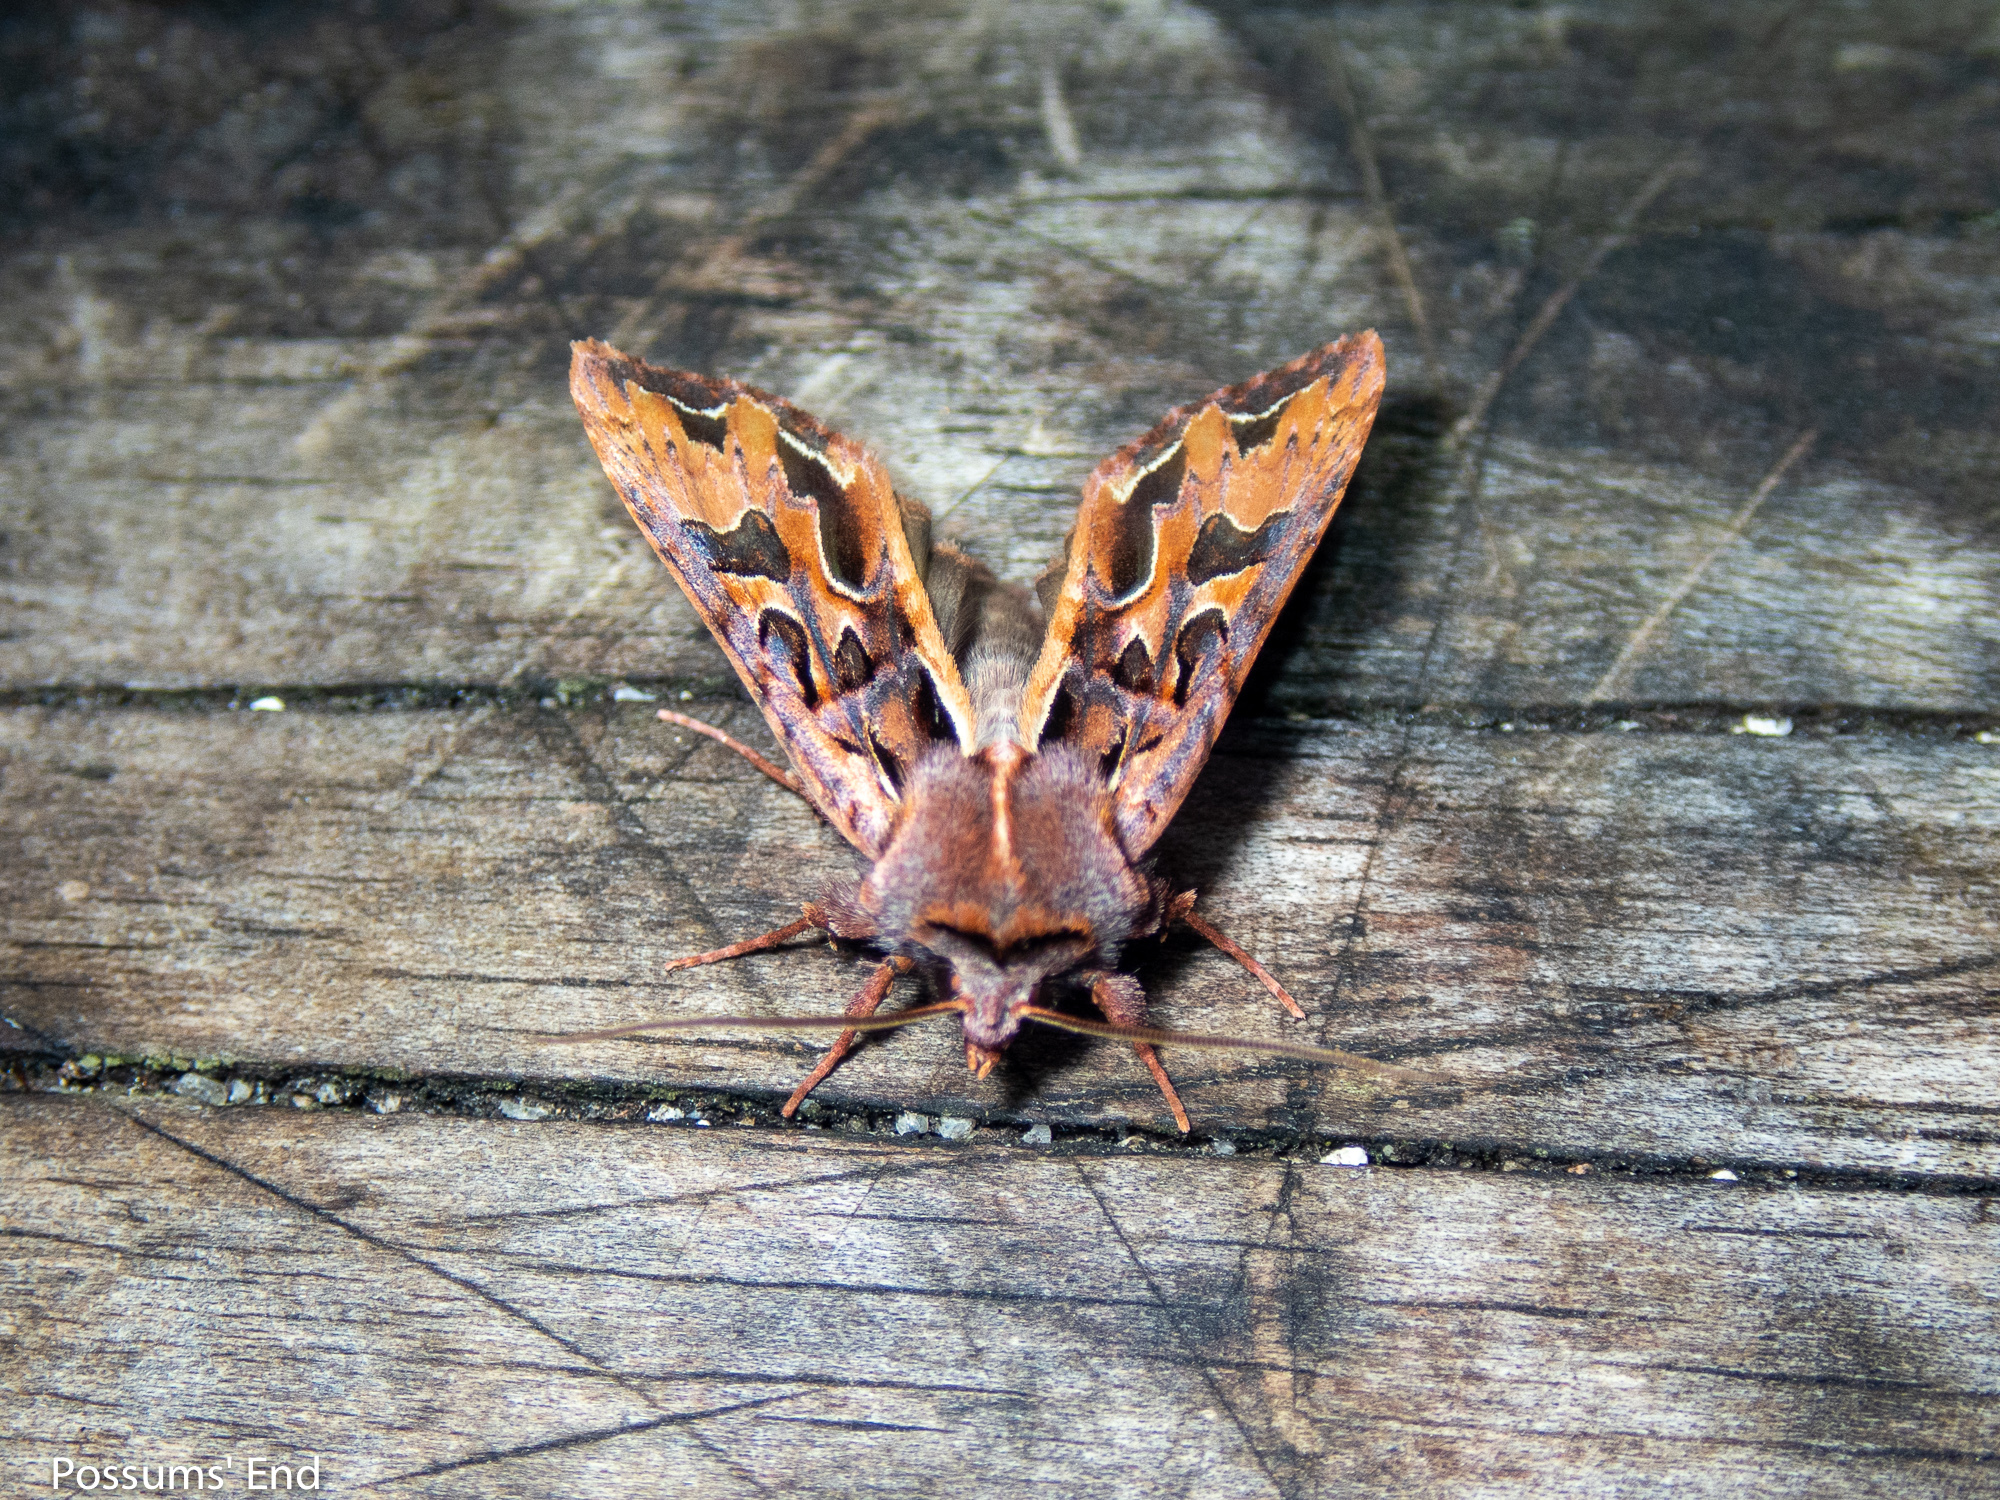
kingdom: Animalia
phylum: Arthropoda
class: Insecta
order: Lepidoptera
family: Noctuidae
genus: Ichneutica
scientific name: Ichneutica
